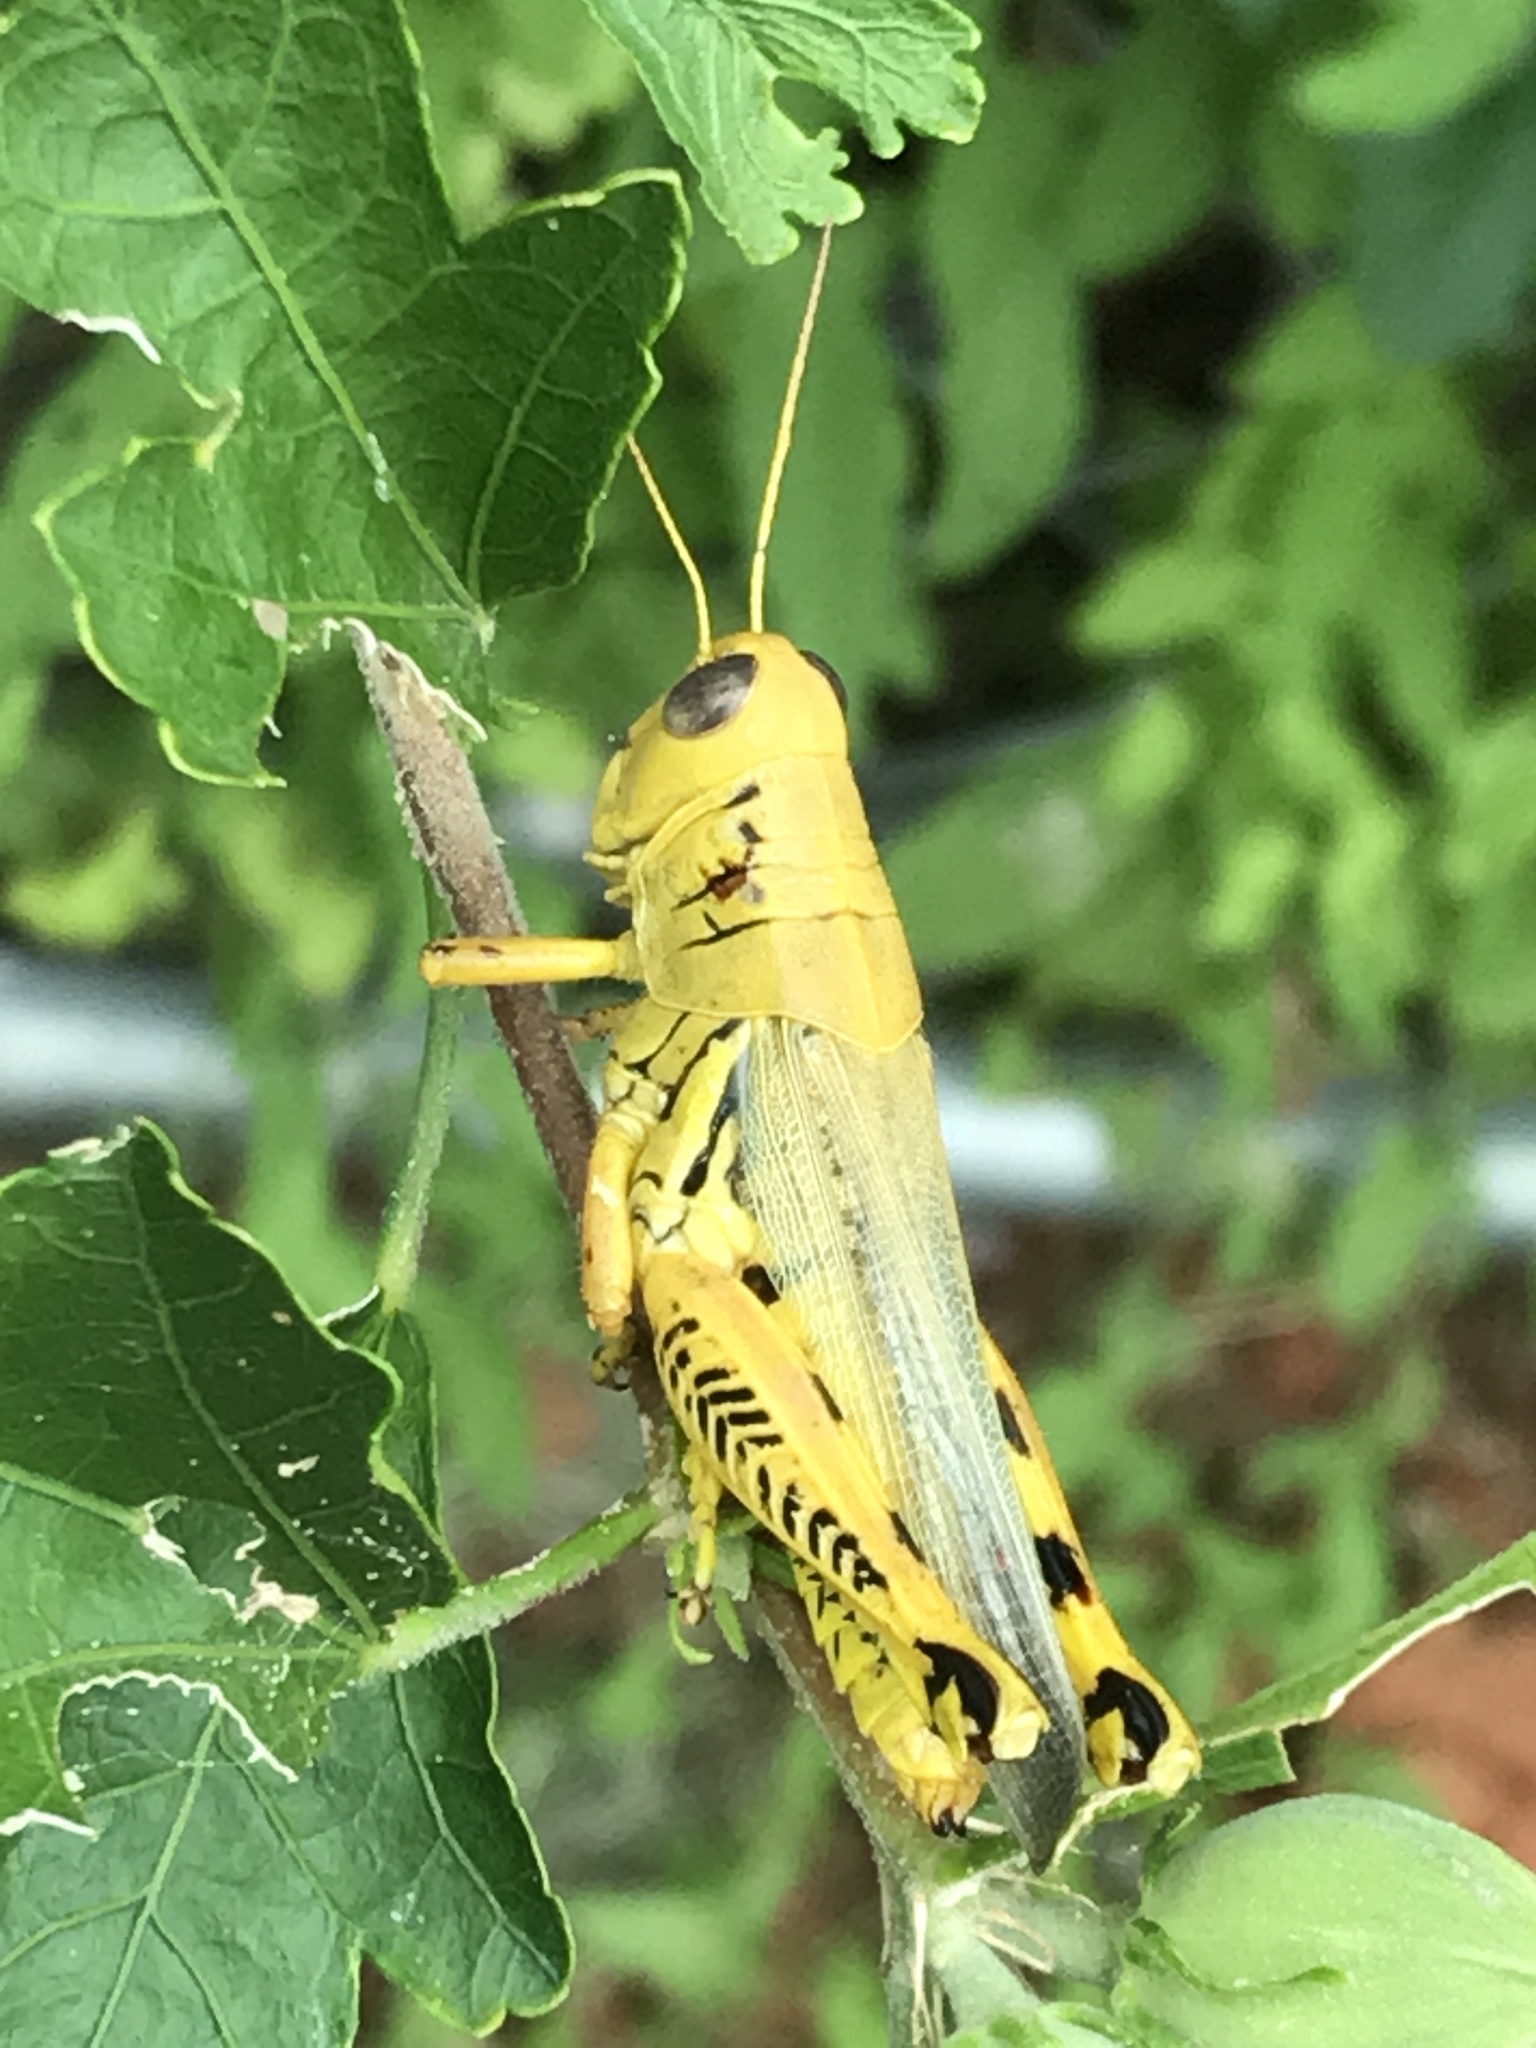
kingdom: Animalia
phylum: Arthropoda
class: Insecta
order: Orthoptera
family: Acrididae
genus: Melanoplus
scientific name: Melanoplus differentialis
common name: Differential grasshopper
